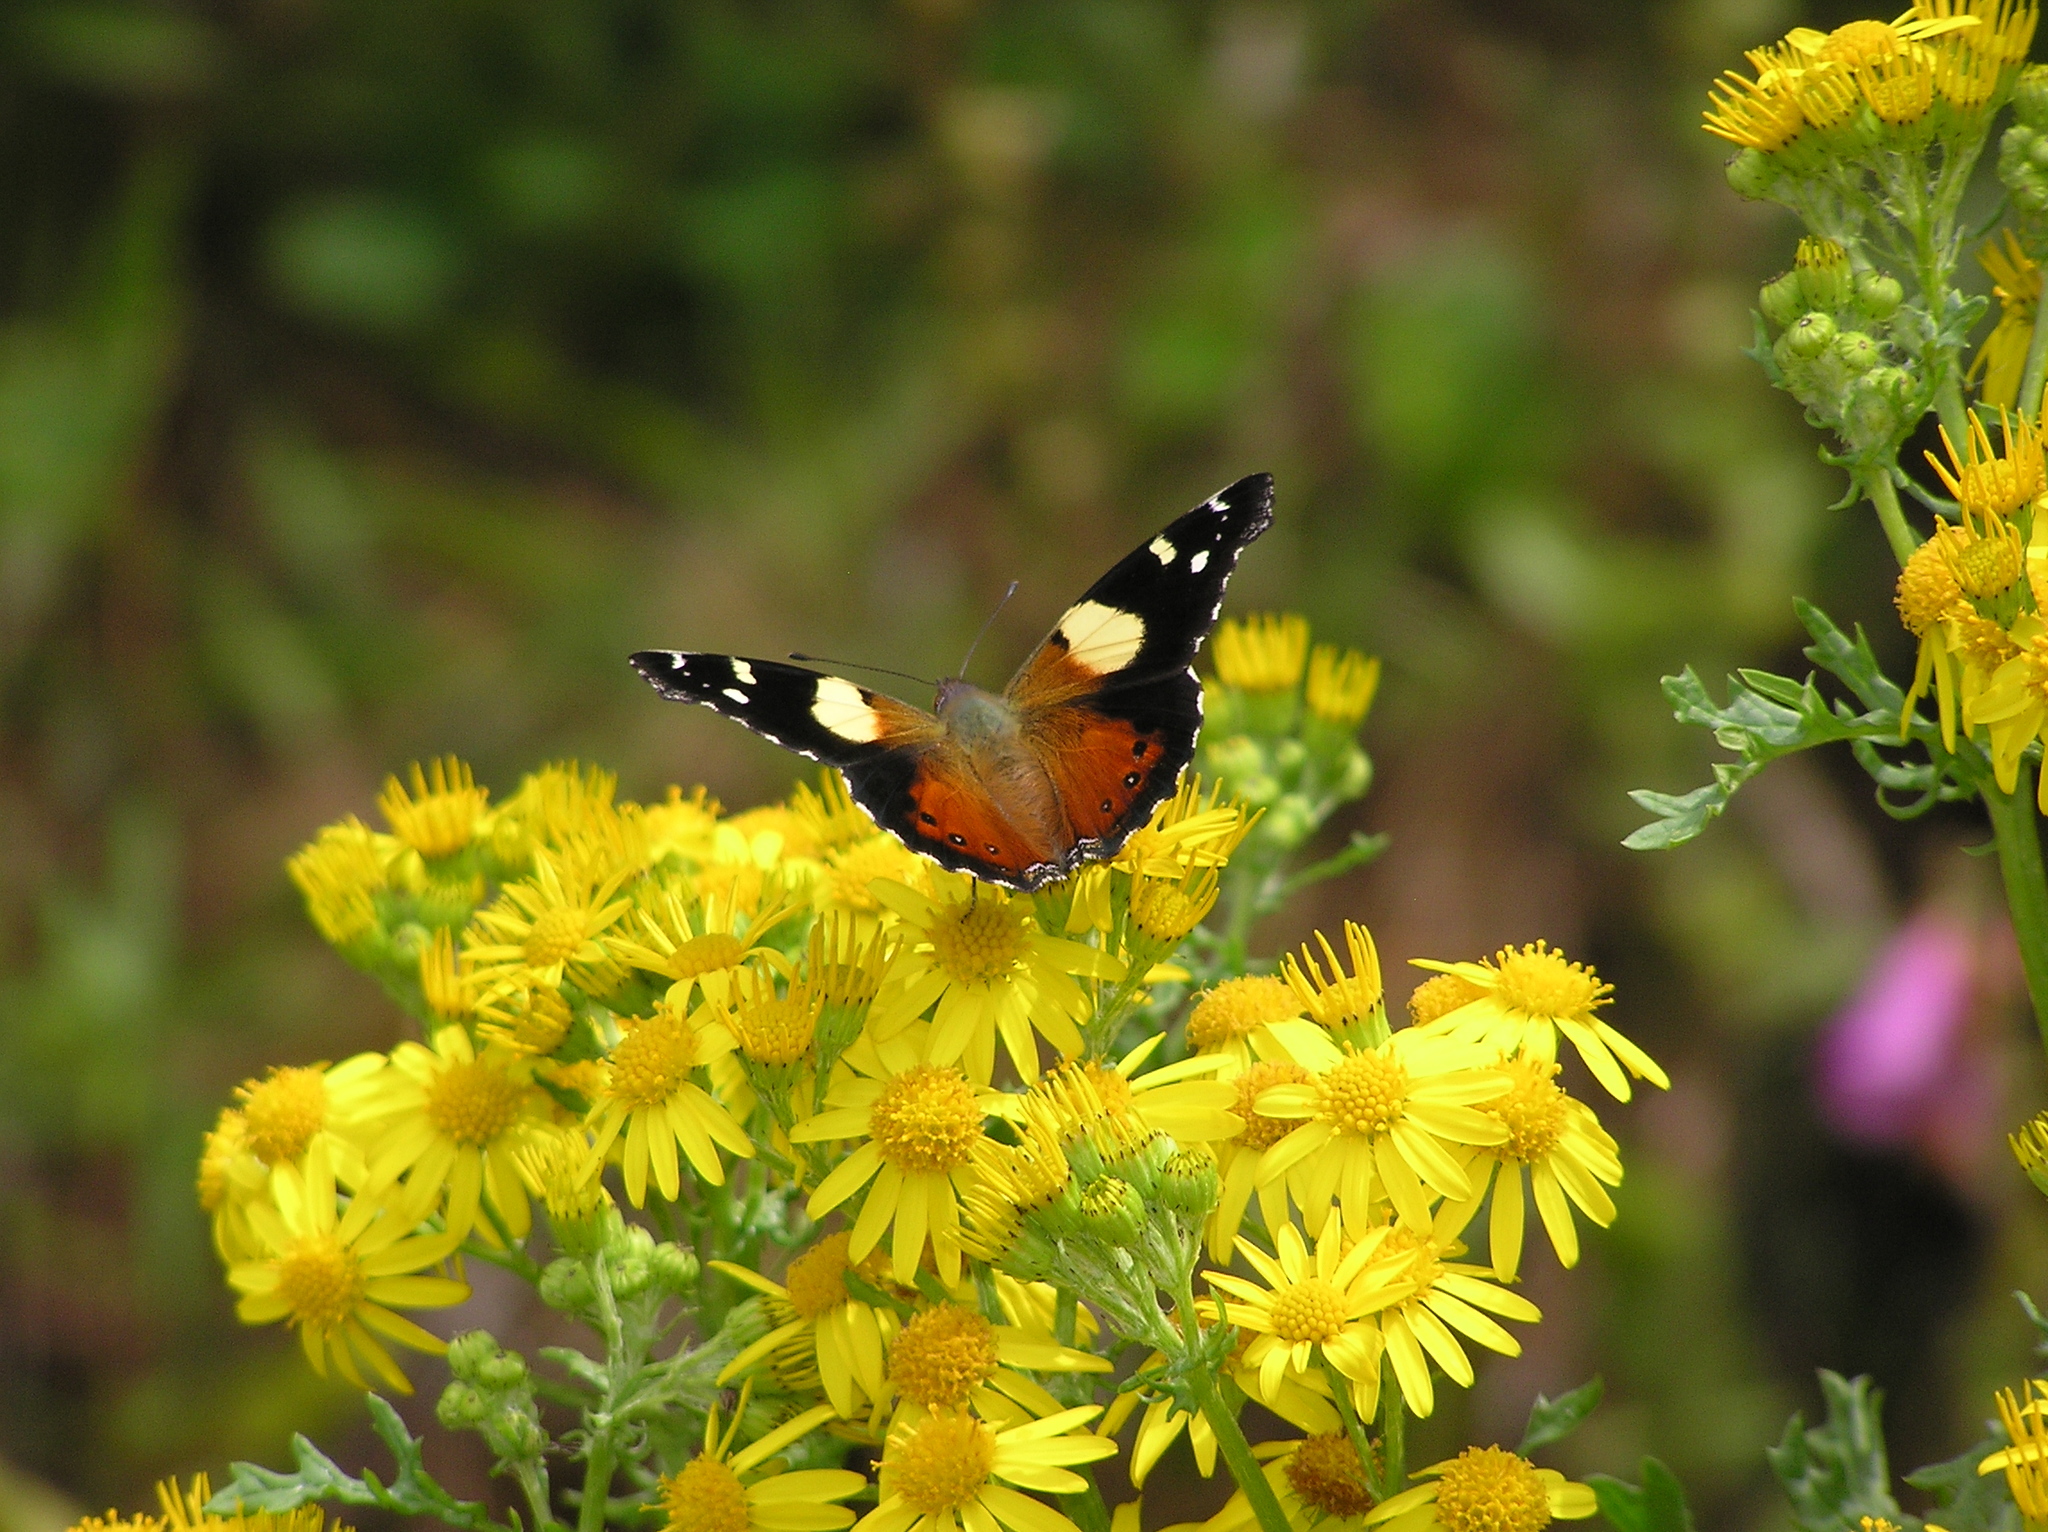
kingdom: Animalia
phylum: Arthropoda
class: Insecta
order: Lepidoptera
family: Nymphalidae
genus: Vanessa
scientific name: Vanessa itea
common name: Yellow admiral
